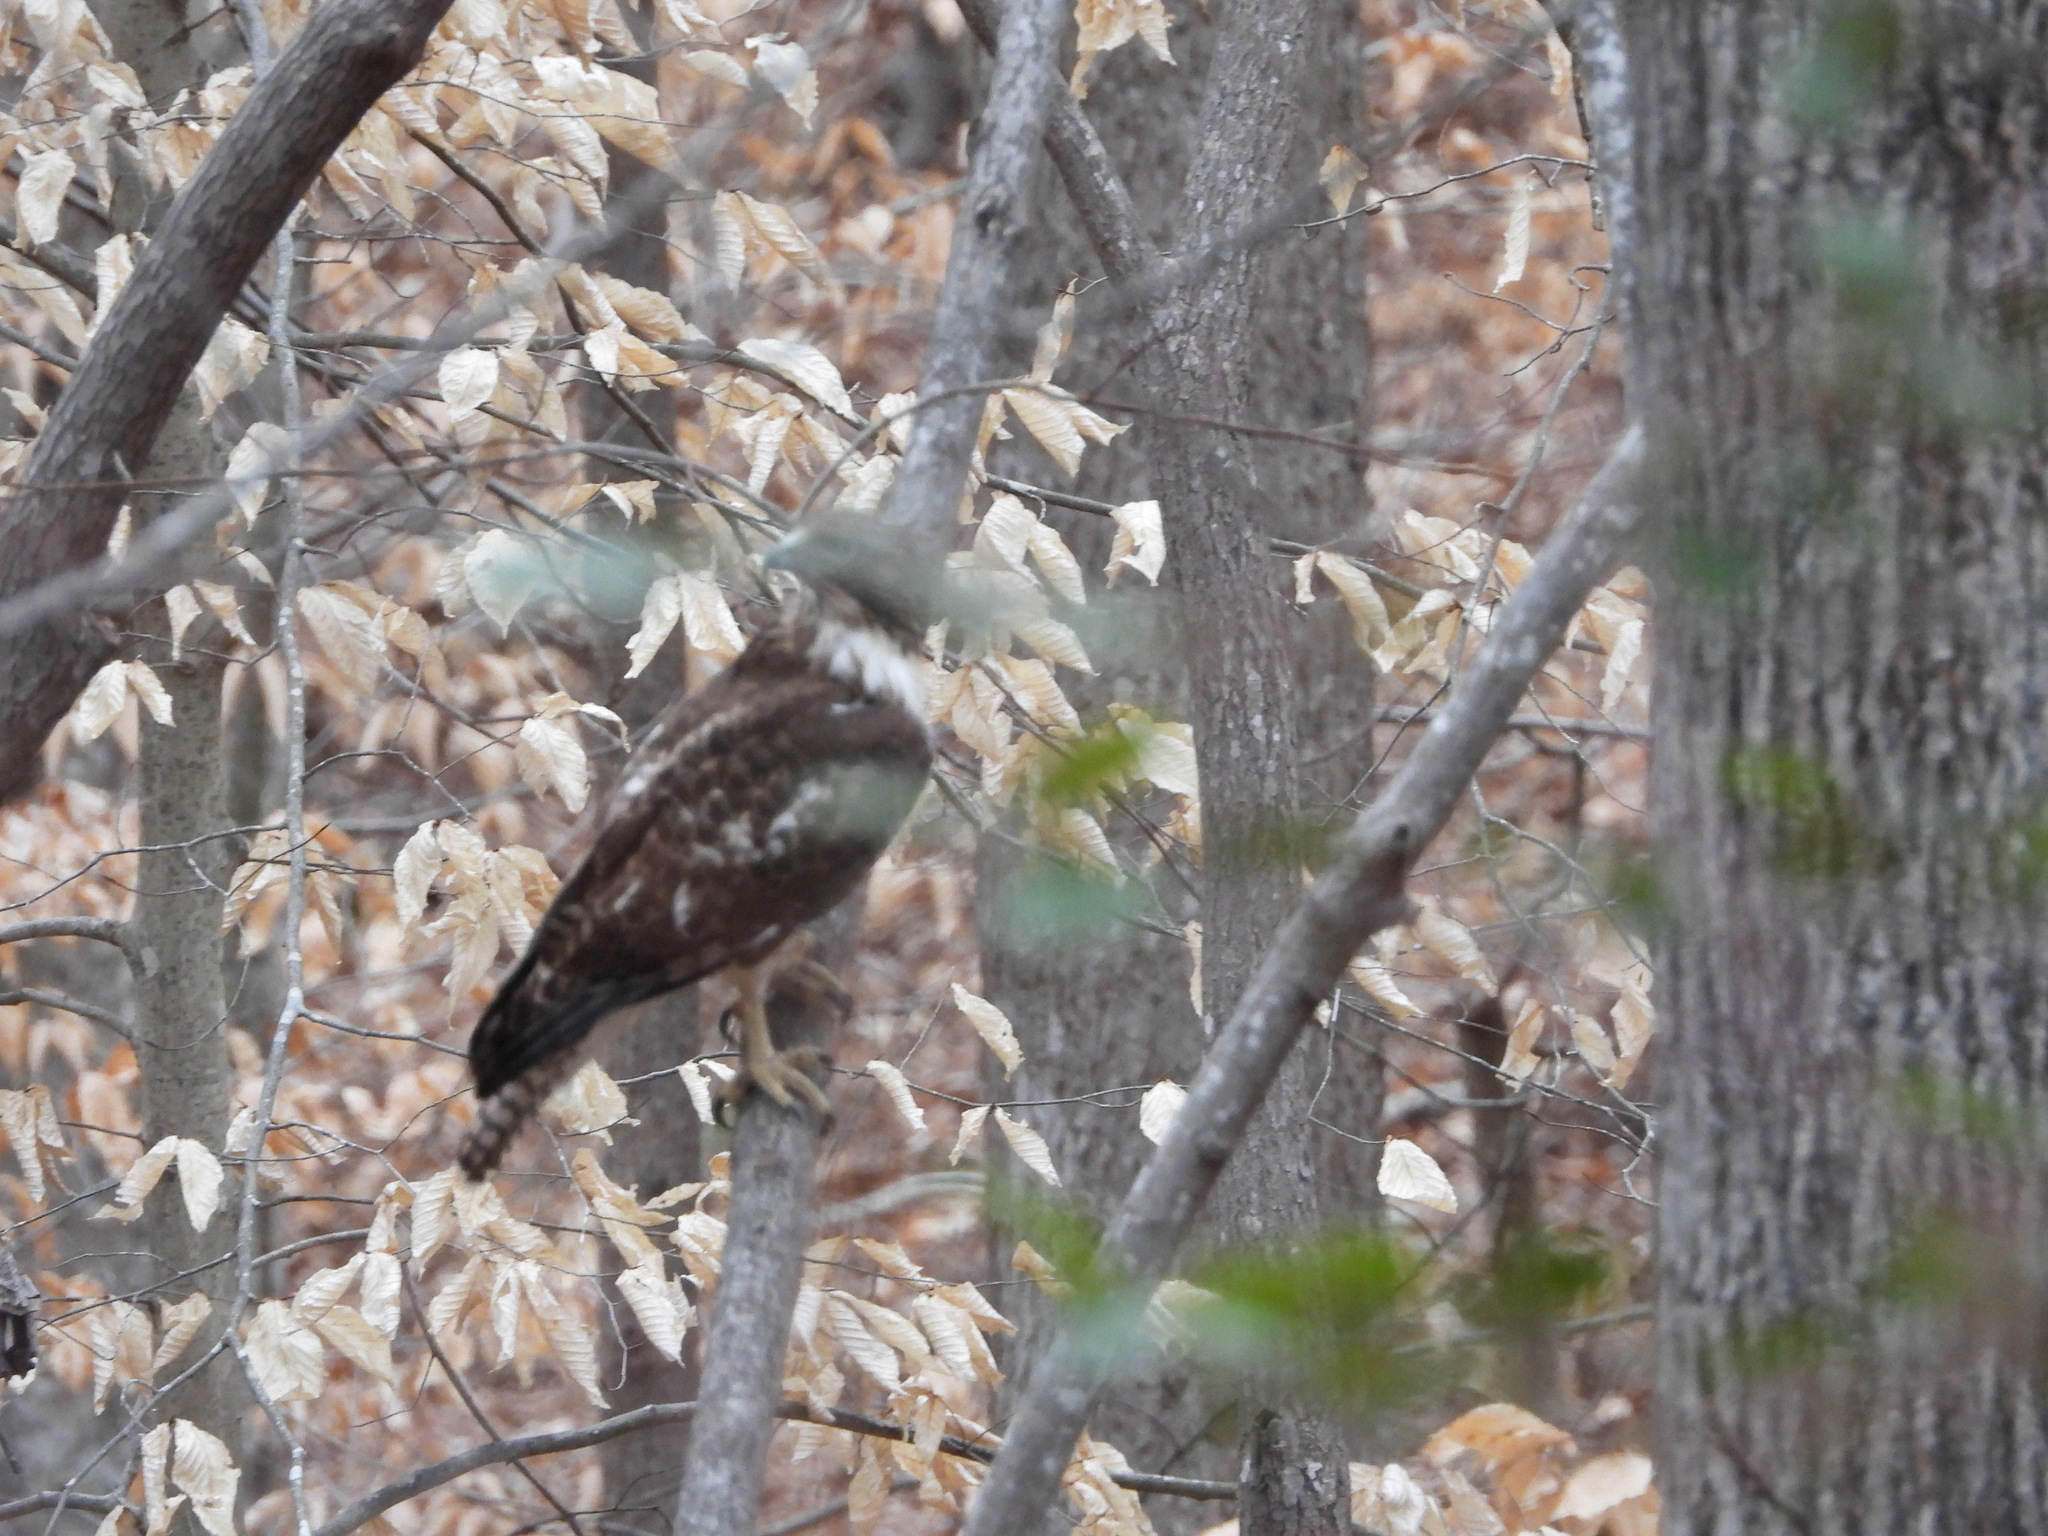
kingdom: Animalia
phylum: Chordata
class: Aves
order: Accipitriformes
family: Accipitridae
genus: Buteo
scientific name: Buteo jamaicensis
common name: Red-tailed hawk
